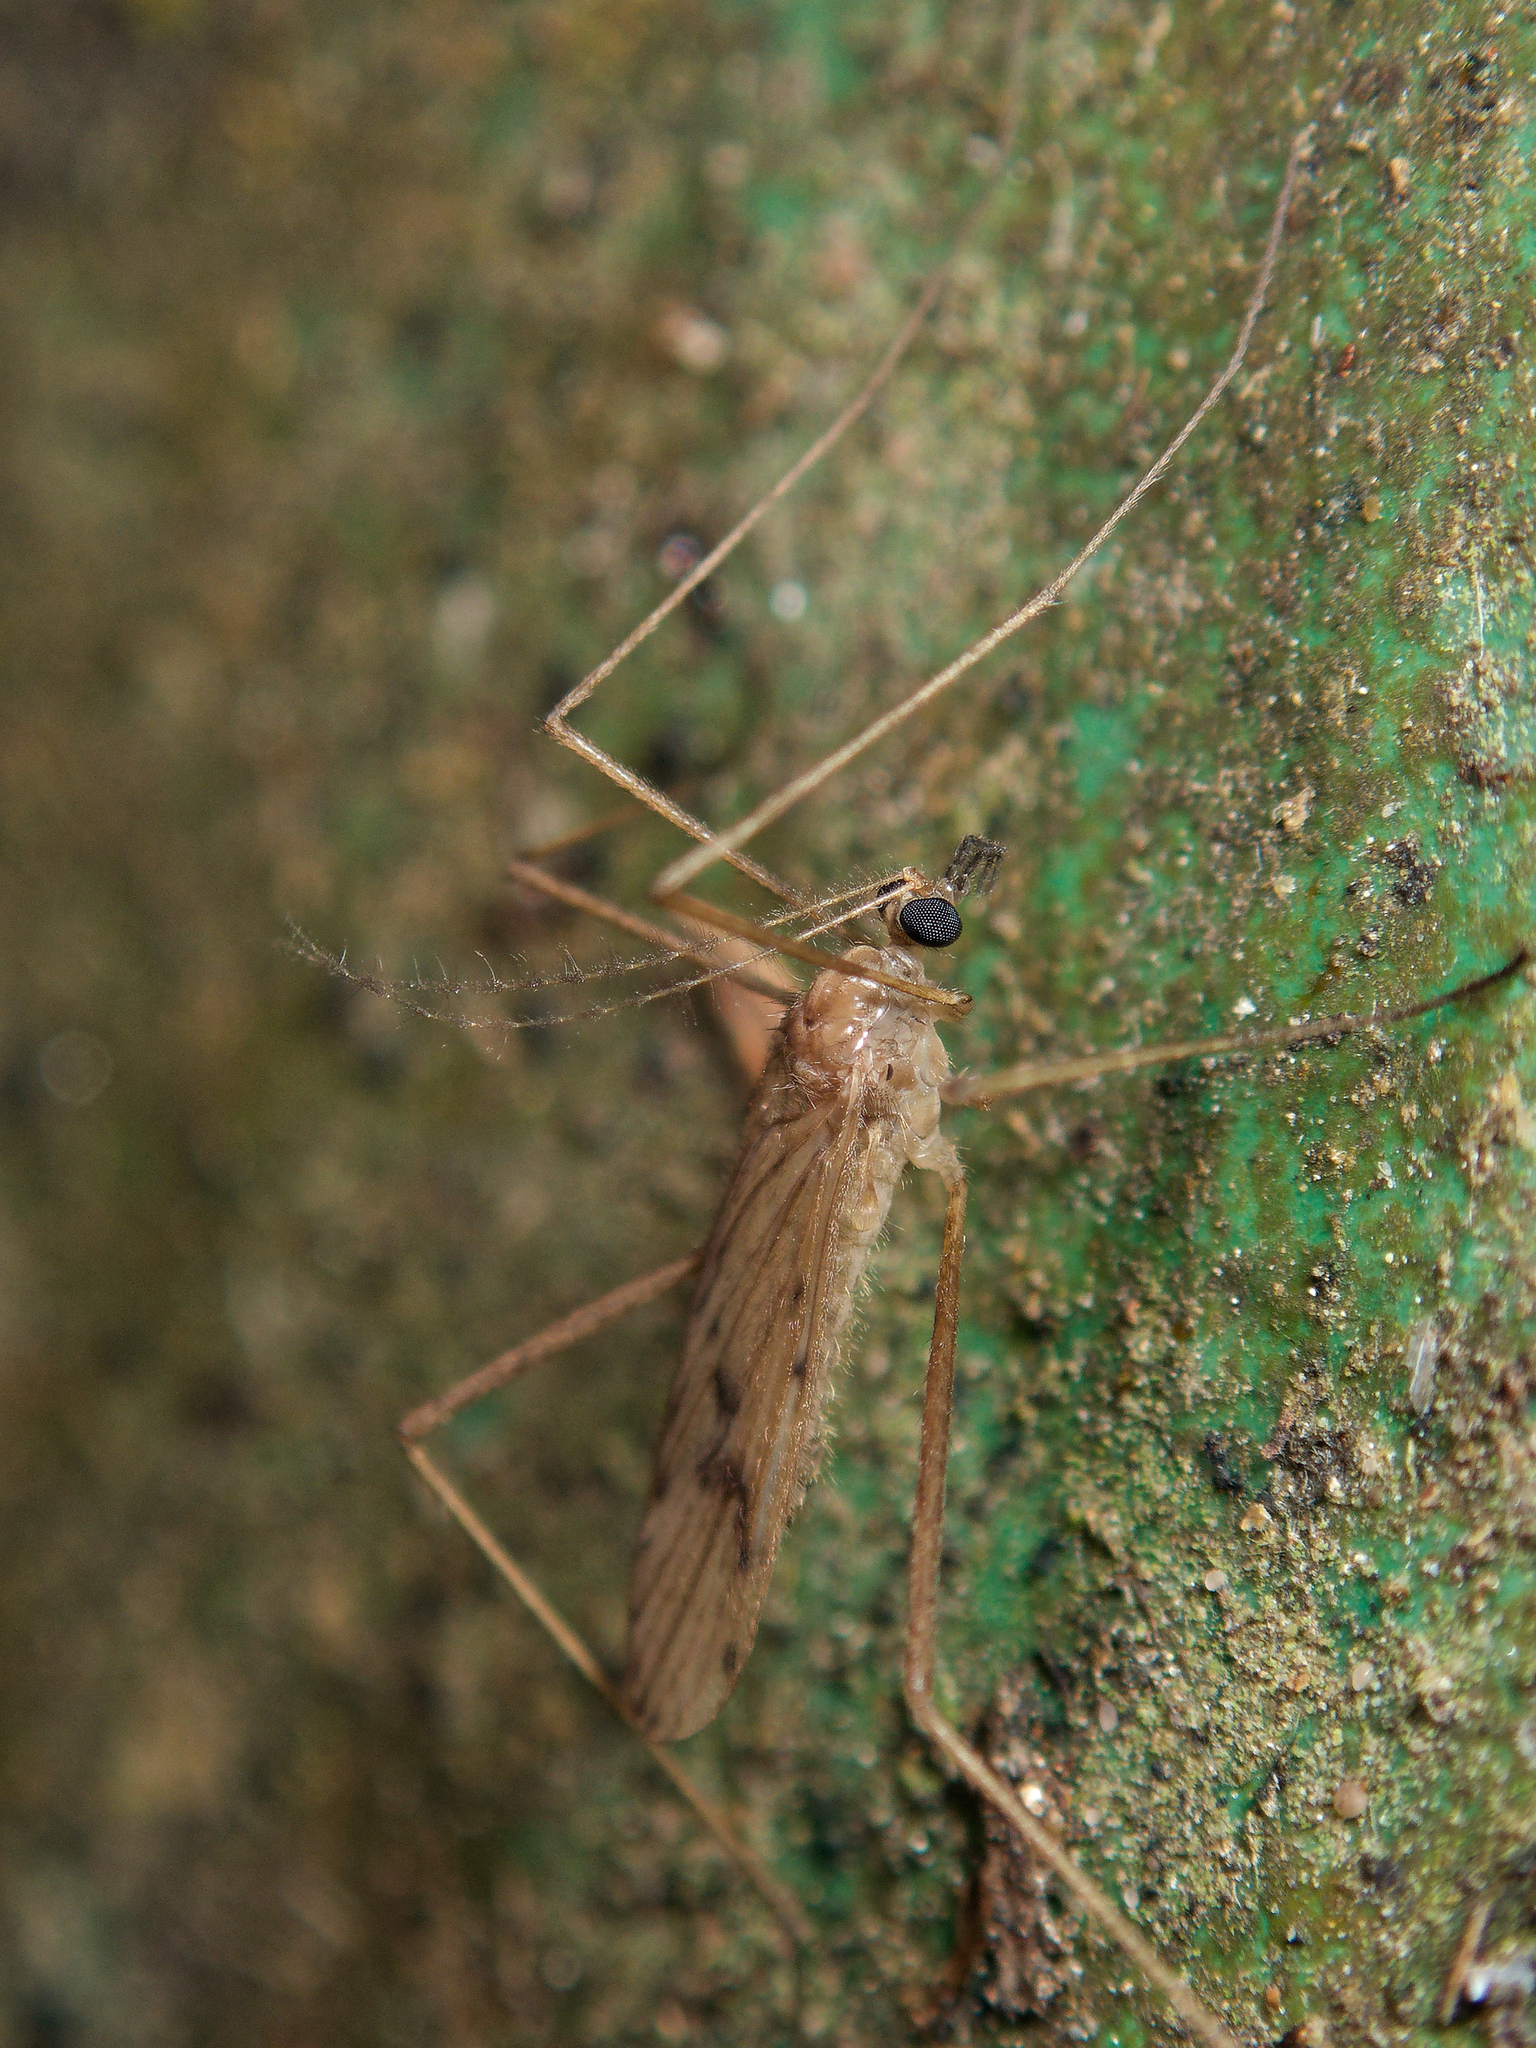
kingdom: Animalia
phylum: Arthropoda
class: Insecta
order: Diptera
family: Limoniidae
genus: Amphineurus
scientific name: Amphineurus insulsus
